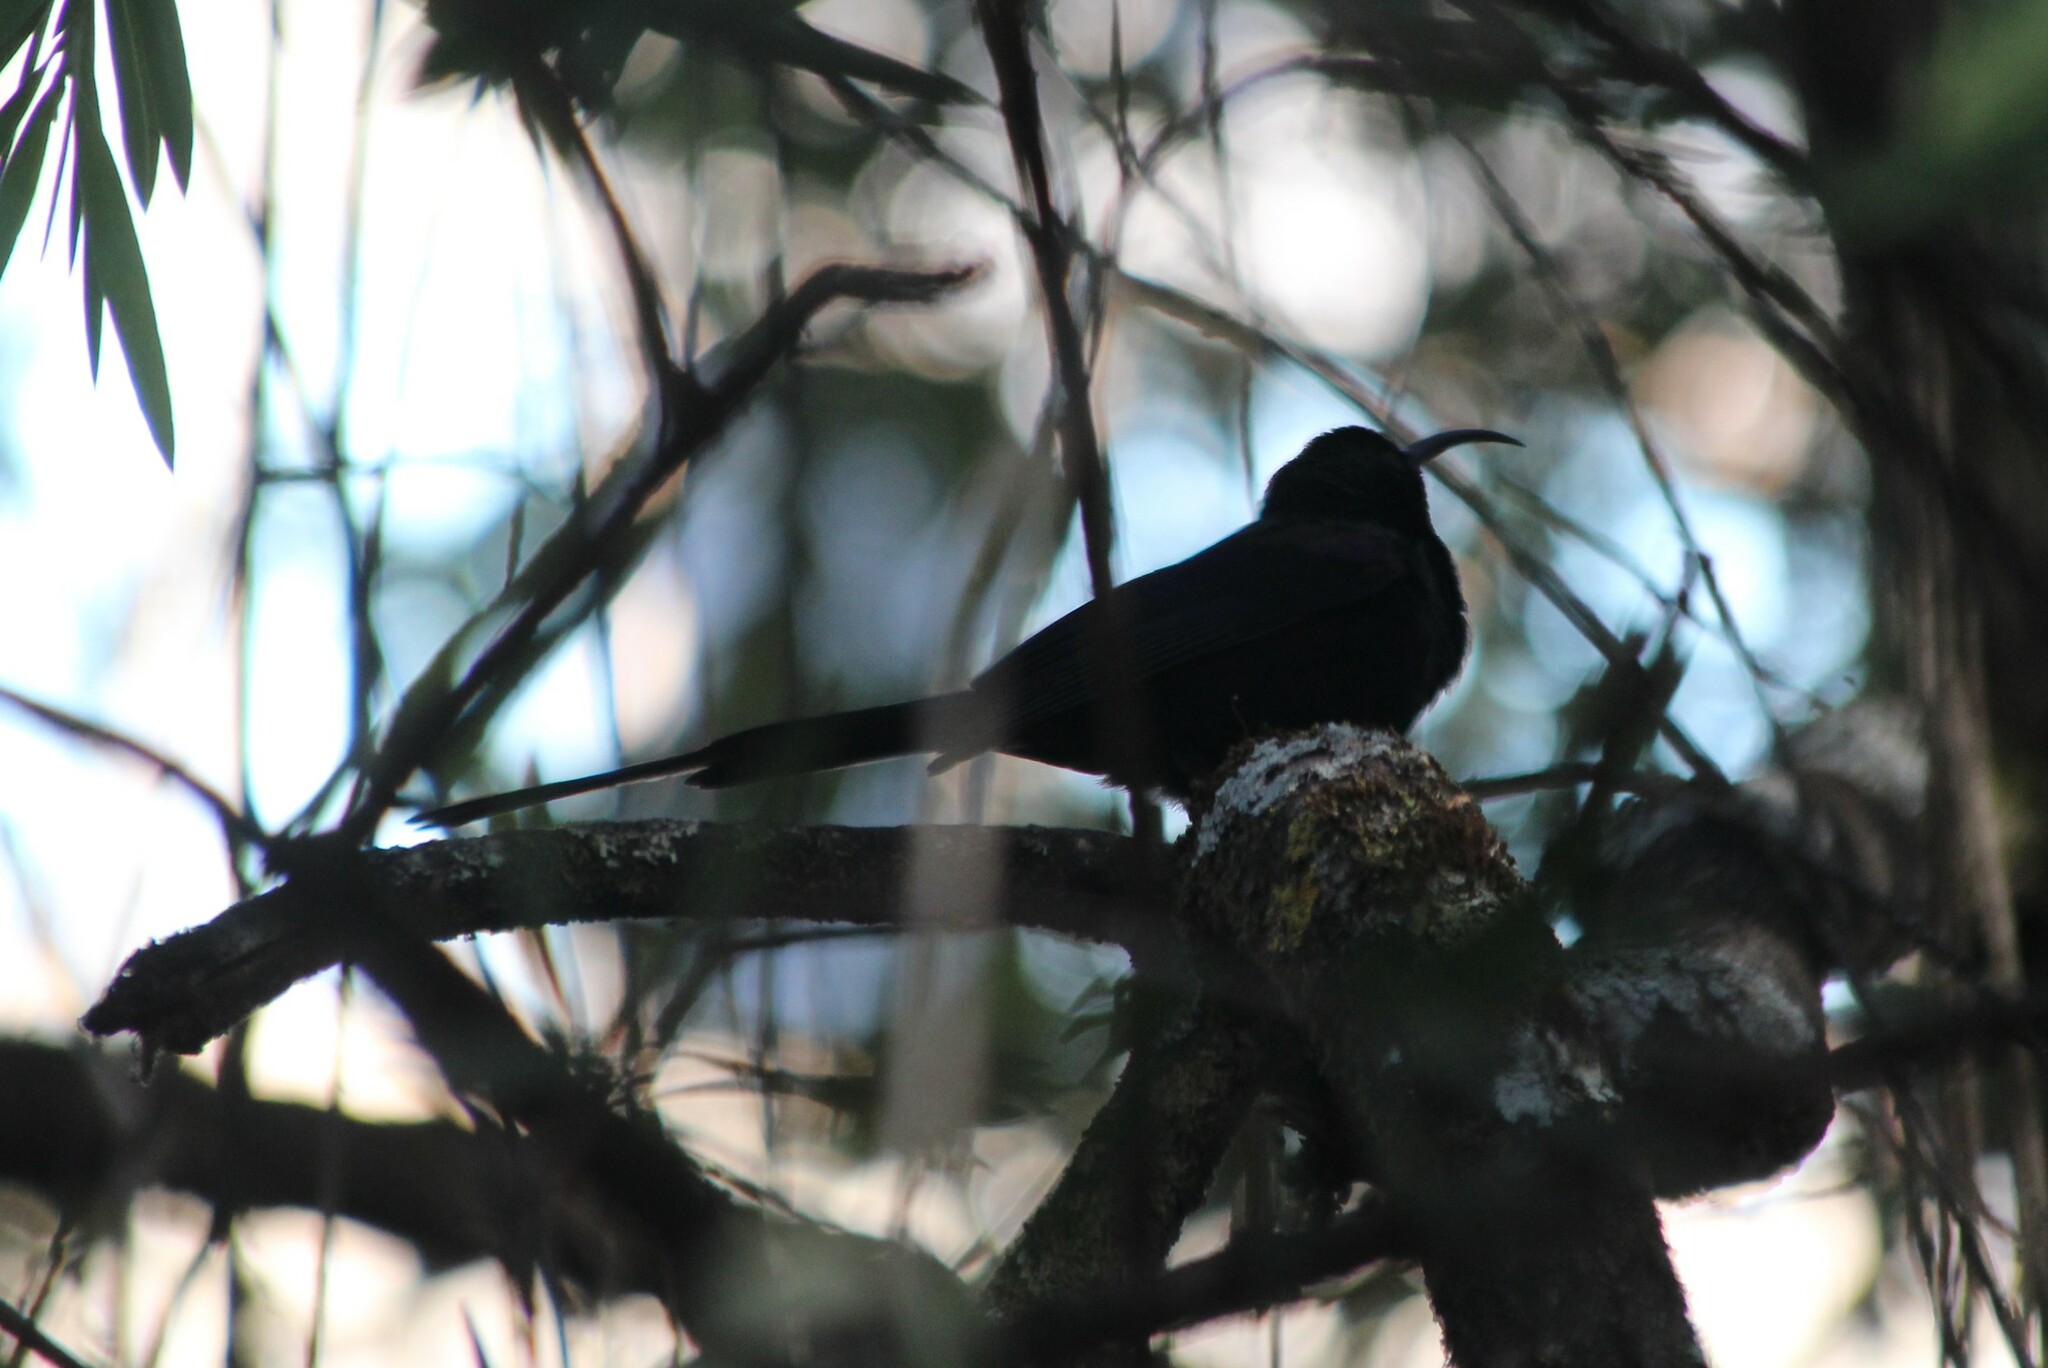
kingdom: Animalia
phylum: Chordata
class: Aves
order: Passeriformes
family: Nectariniidae
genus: Nectarinia
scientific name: Nectarinia tacazze
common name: Tacazze sunbird
